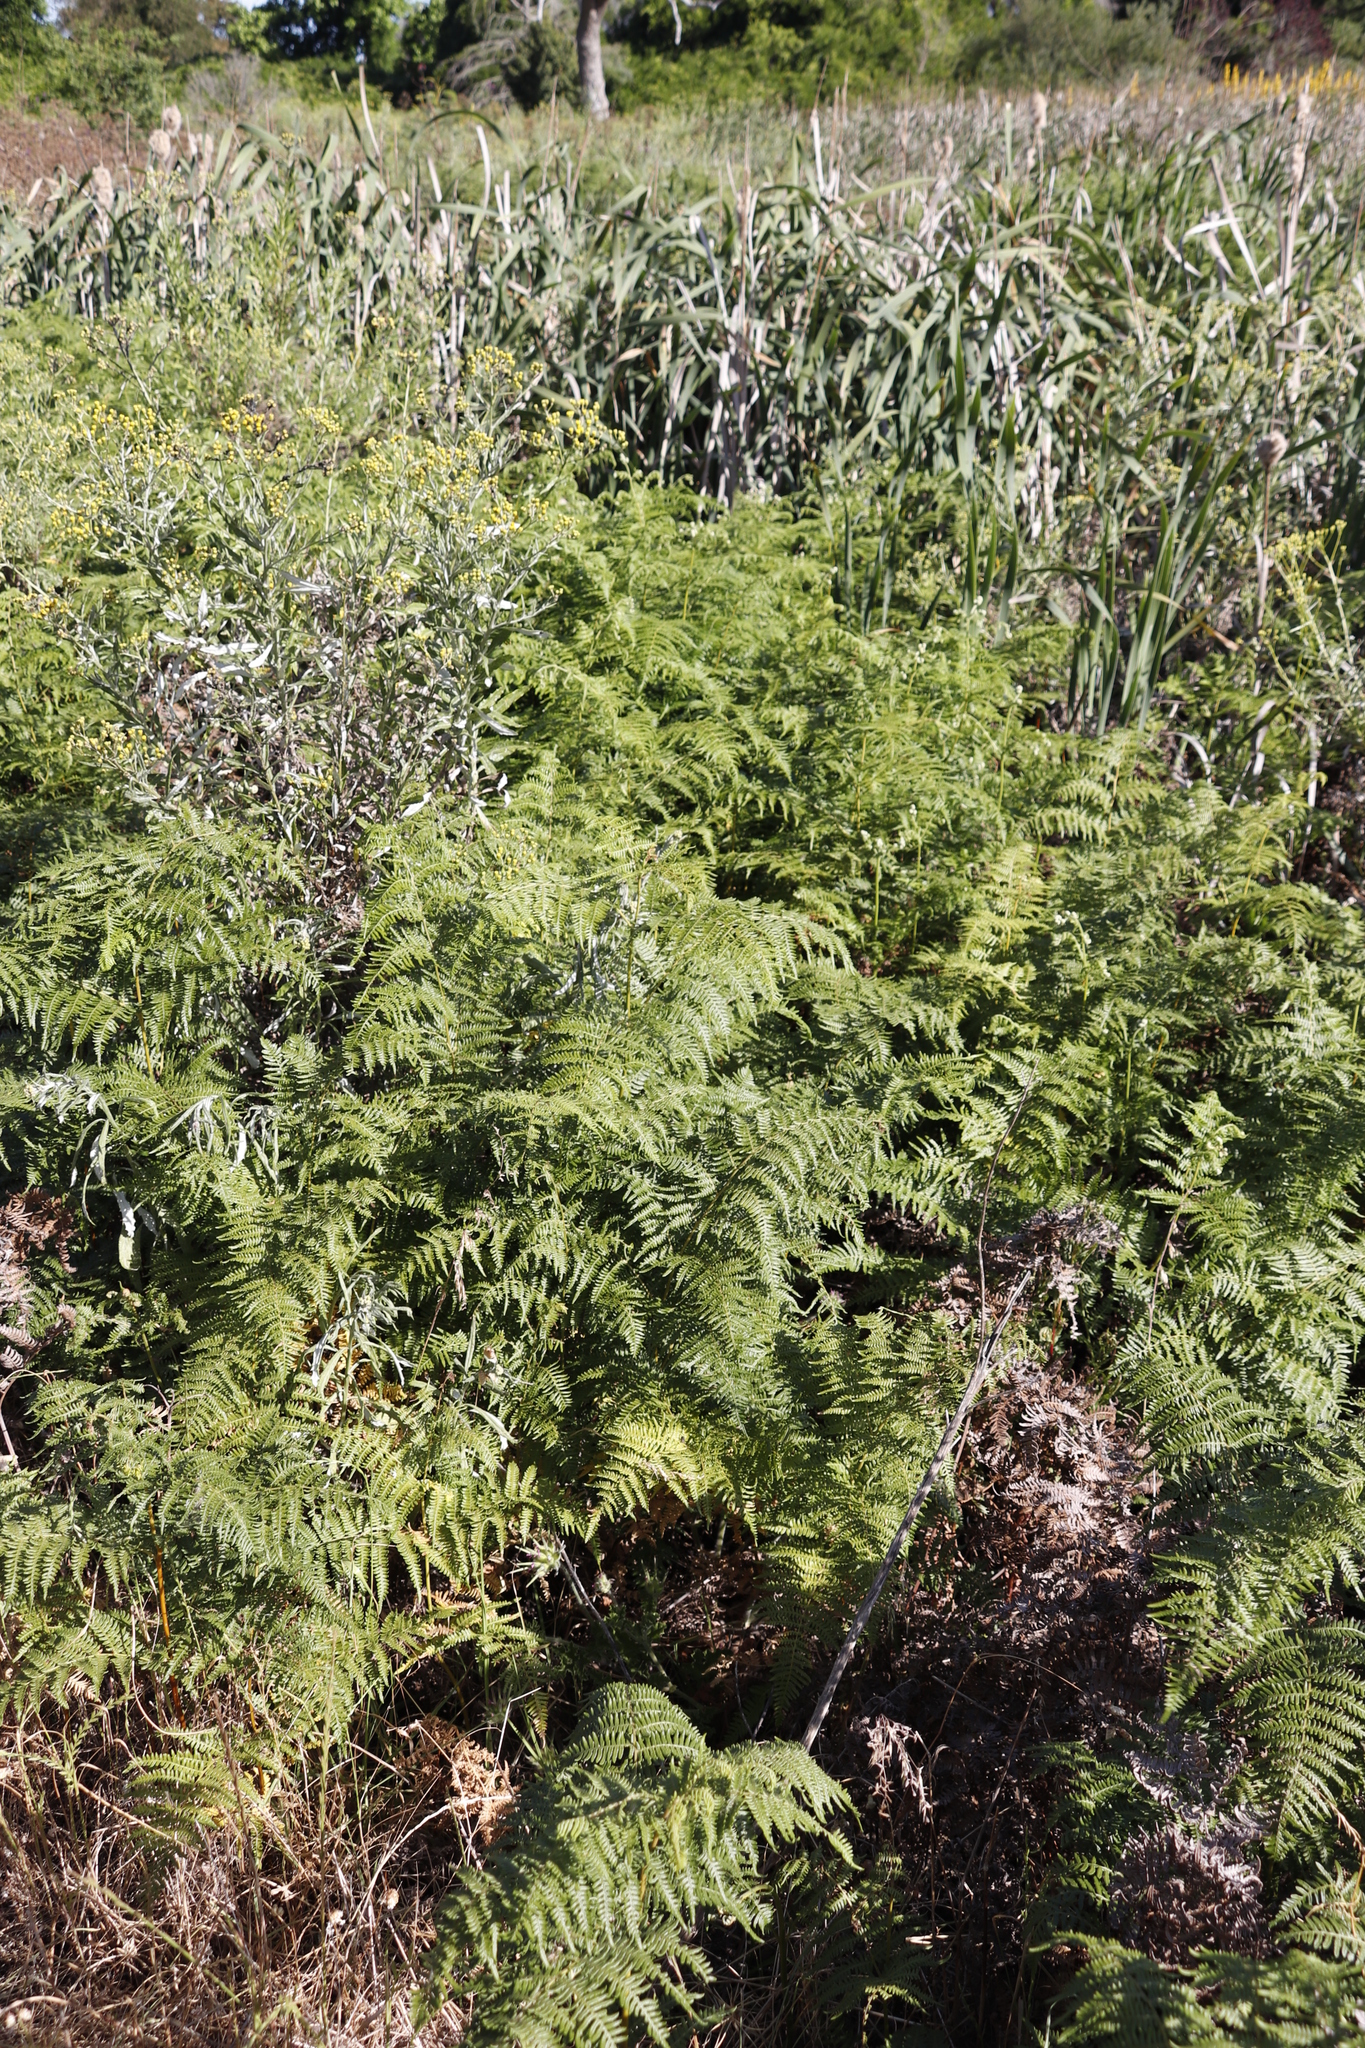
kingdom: Plantae
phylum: Tracheophyta
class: Polypodiopsida
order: Polypodiales
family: Dennstaedtiaceae
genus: Pteridium
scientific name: Pteridium aquilinum
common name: Bracken
